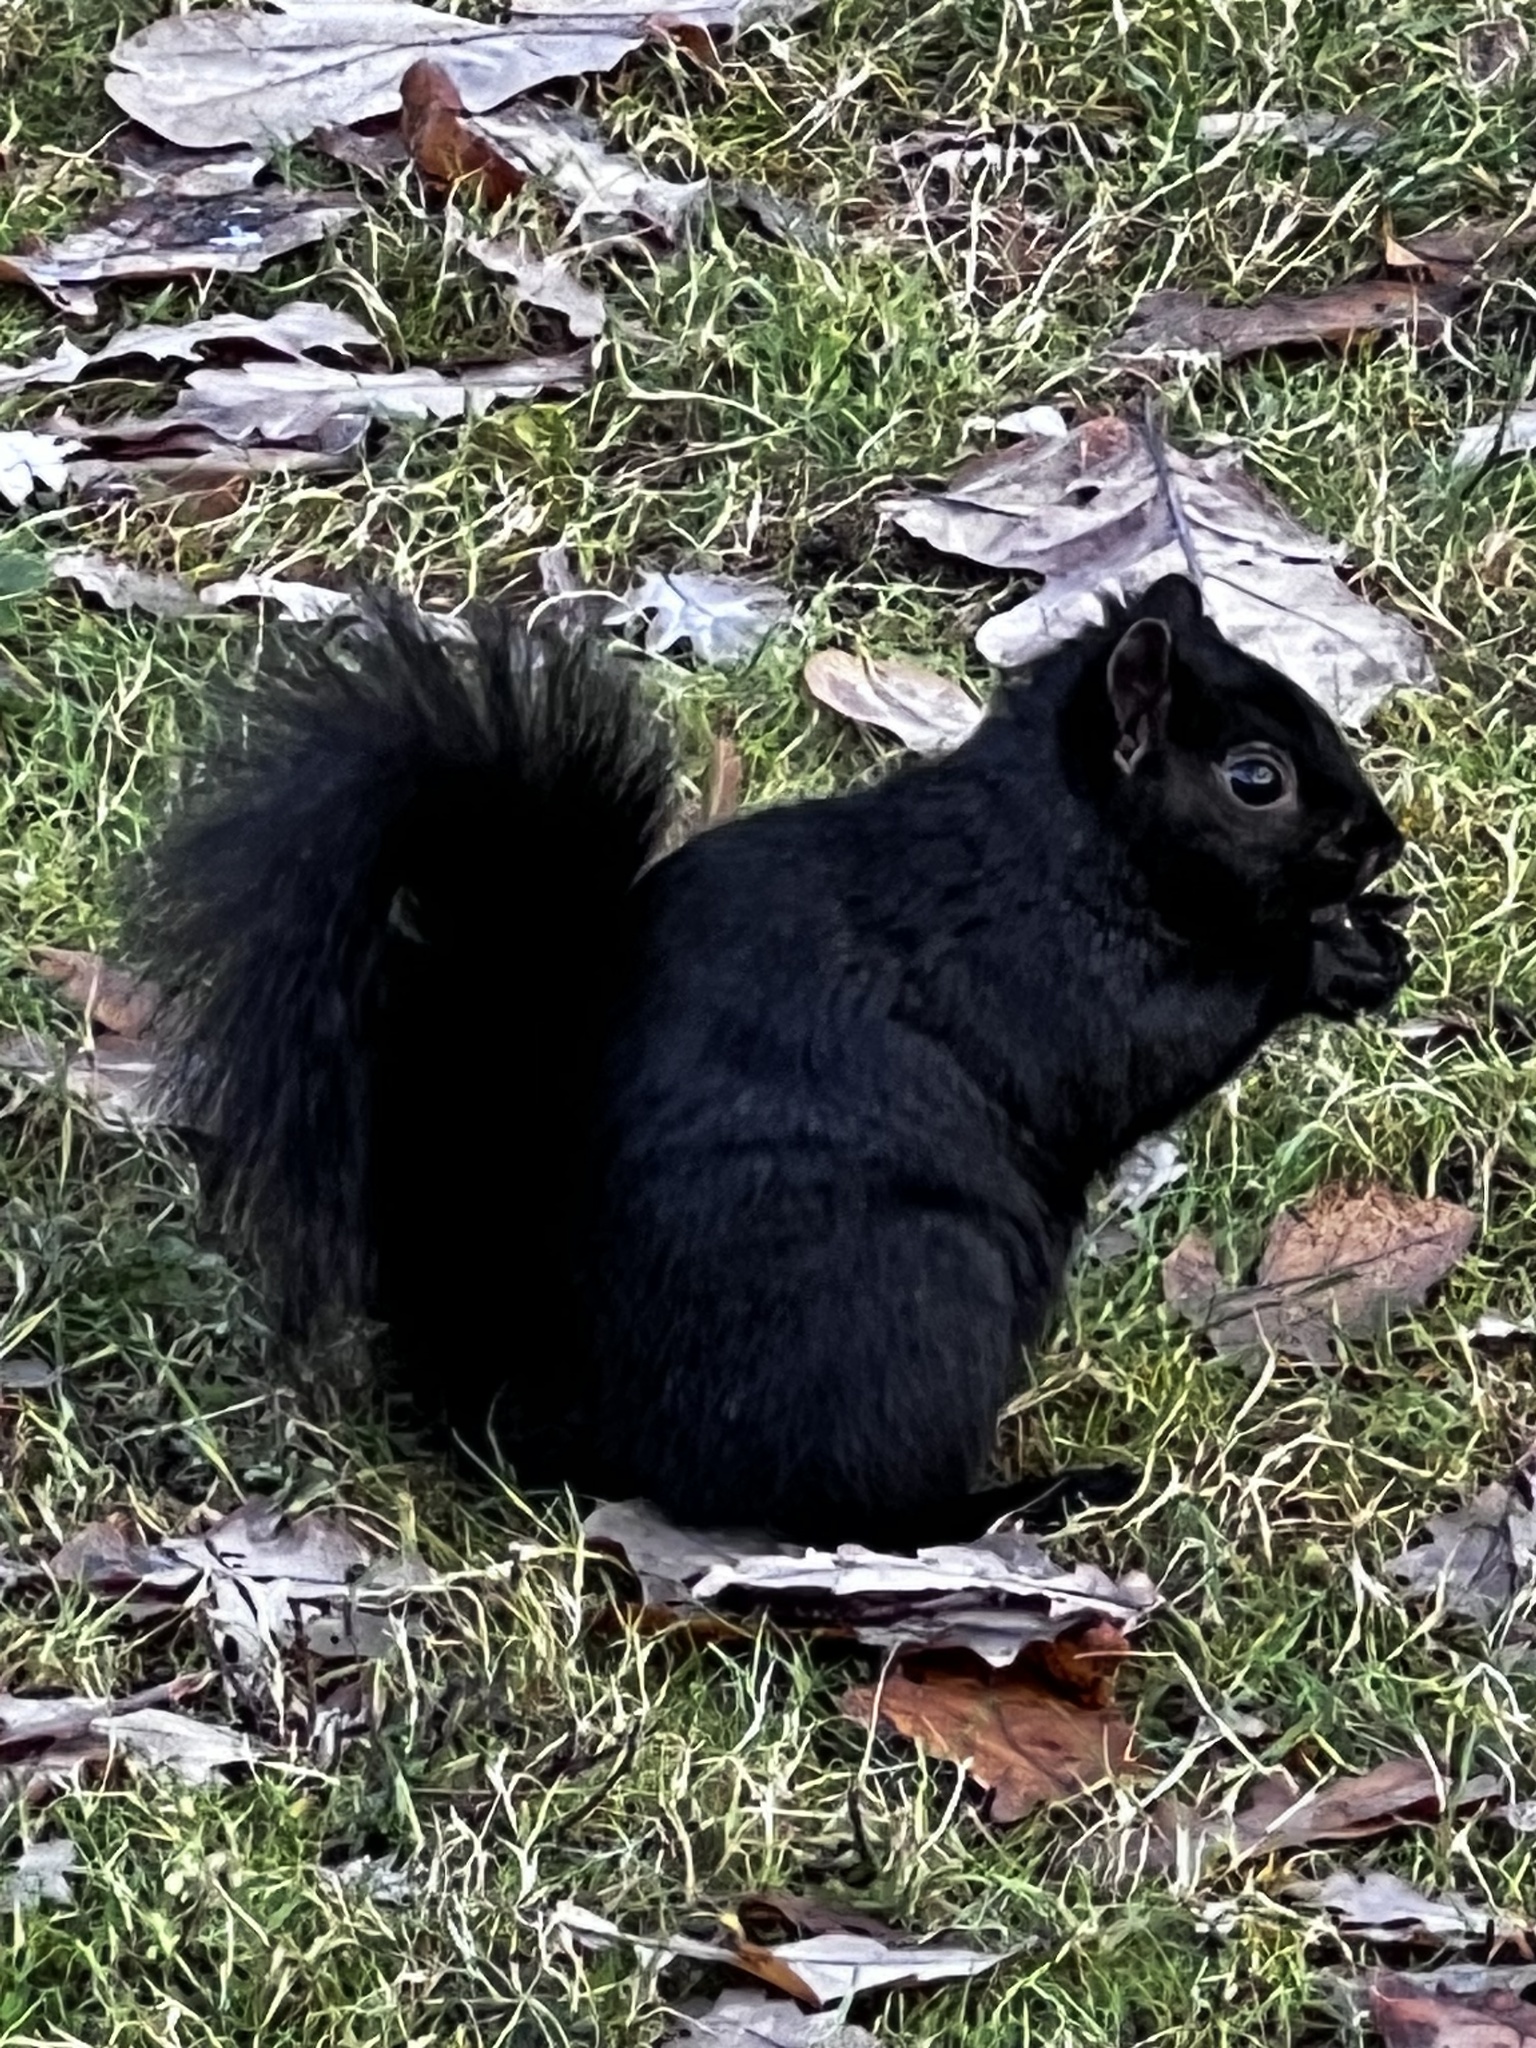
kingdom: Animalia
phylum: Chordata
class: Mammalia
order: Rodentia
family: Sciuridae
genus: Sciurus
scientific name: Sciurus carolinensis
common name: Eastern gray squirrel
